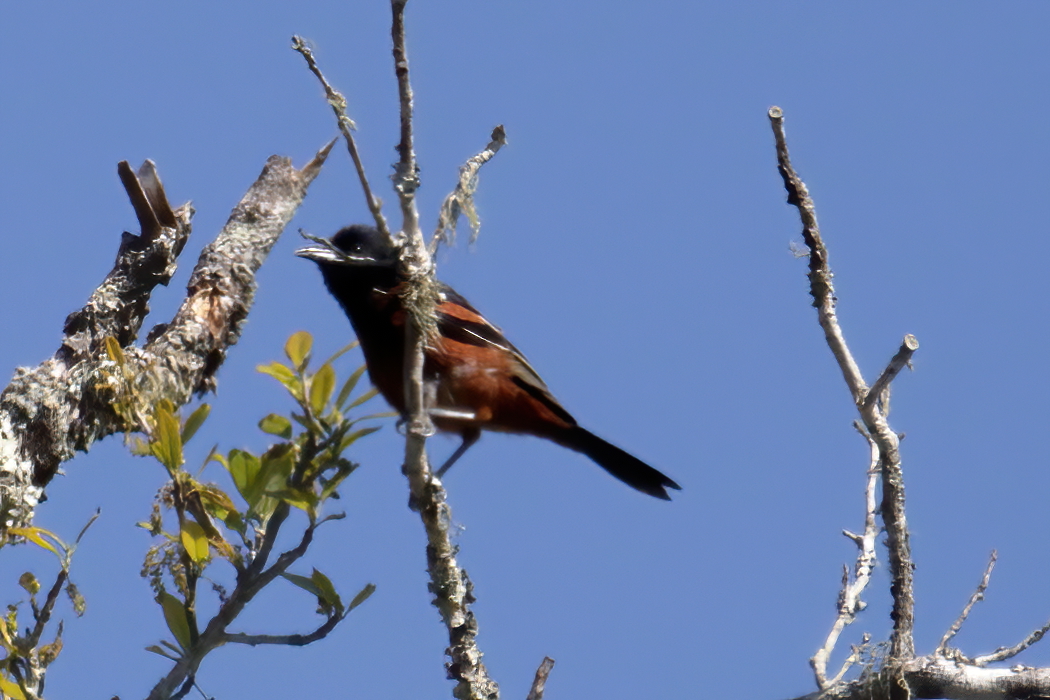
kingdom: Animalia
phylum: Chordata
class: Aves
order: Passeriformes
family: Icteridae
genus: Icterus
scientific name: Icterus spurius
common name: Orchard oriole
